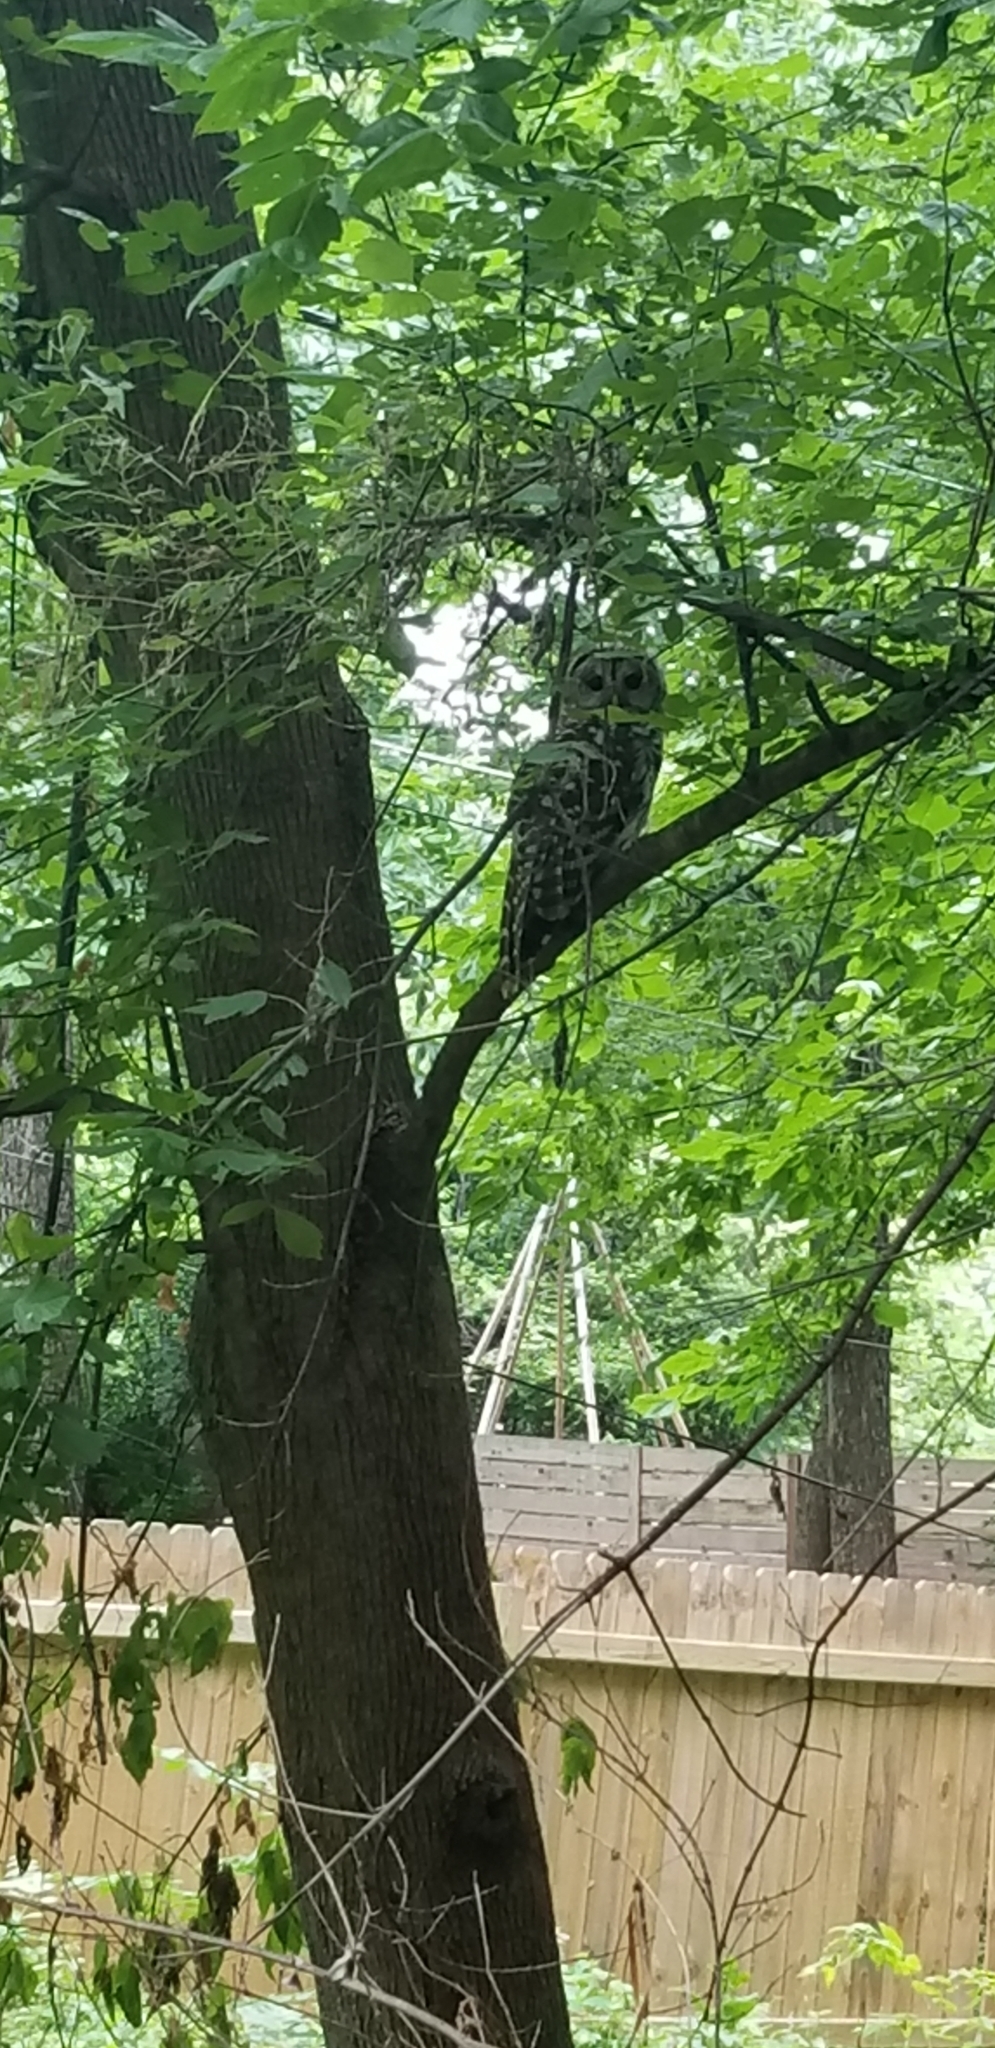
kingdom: Animalia
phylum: Chordata
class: Aves
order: Strigiformes
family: Strigidae
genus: Strix
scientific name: Strix varia
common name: Barred owl
